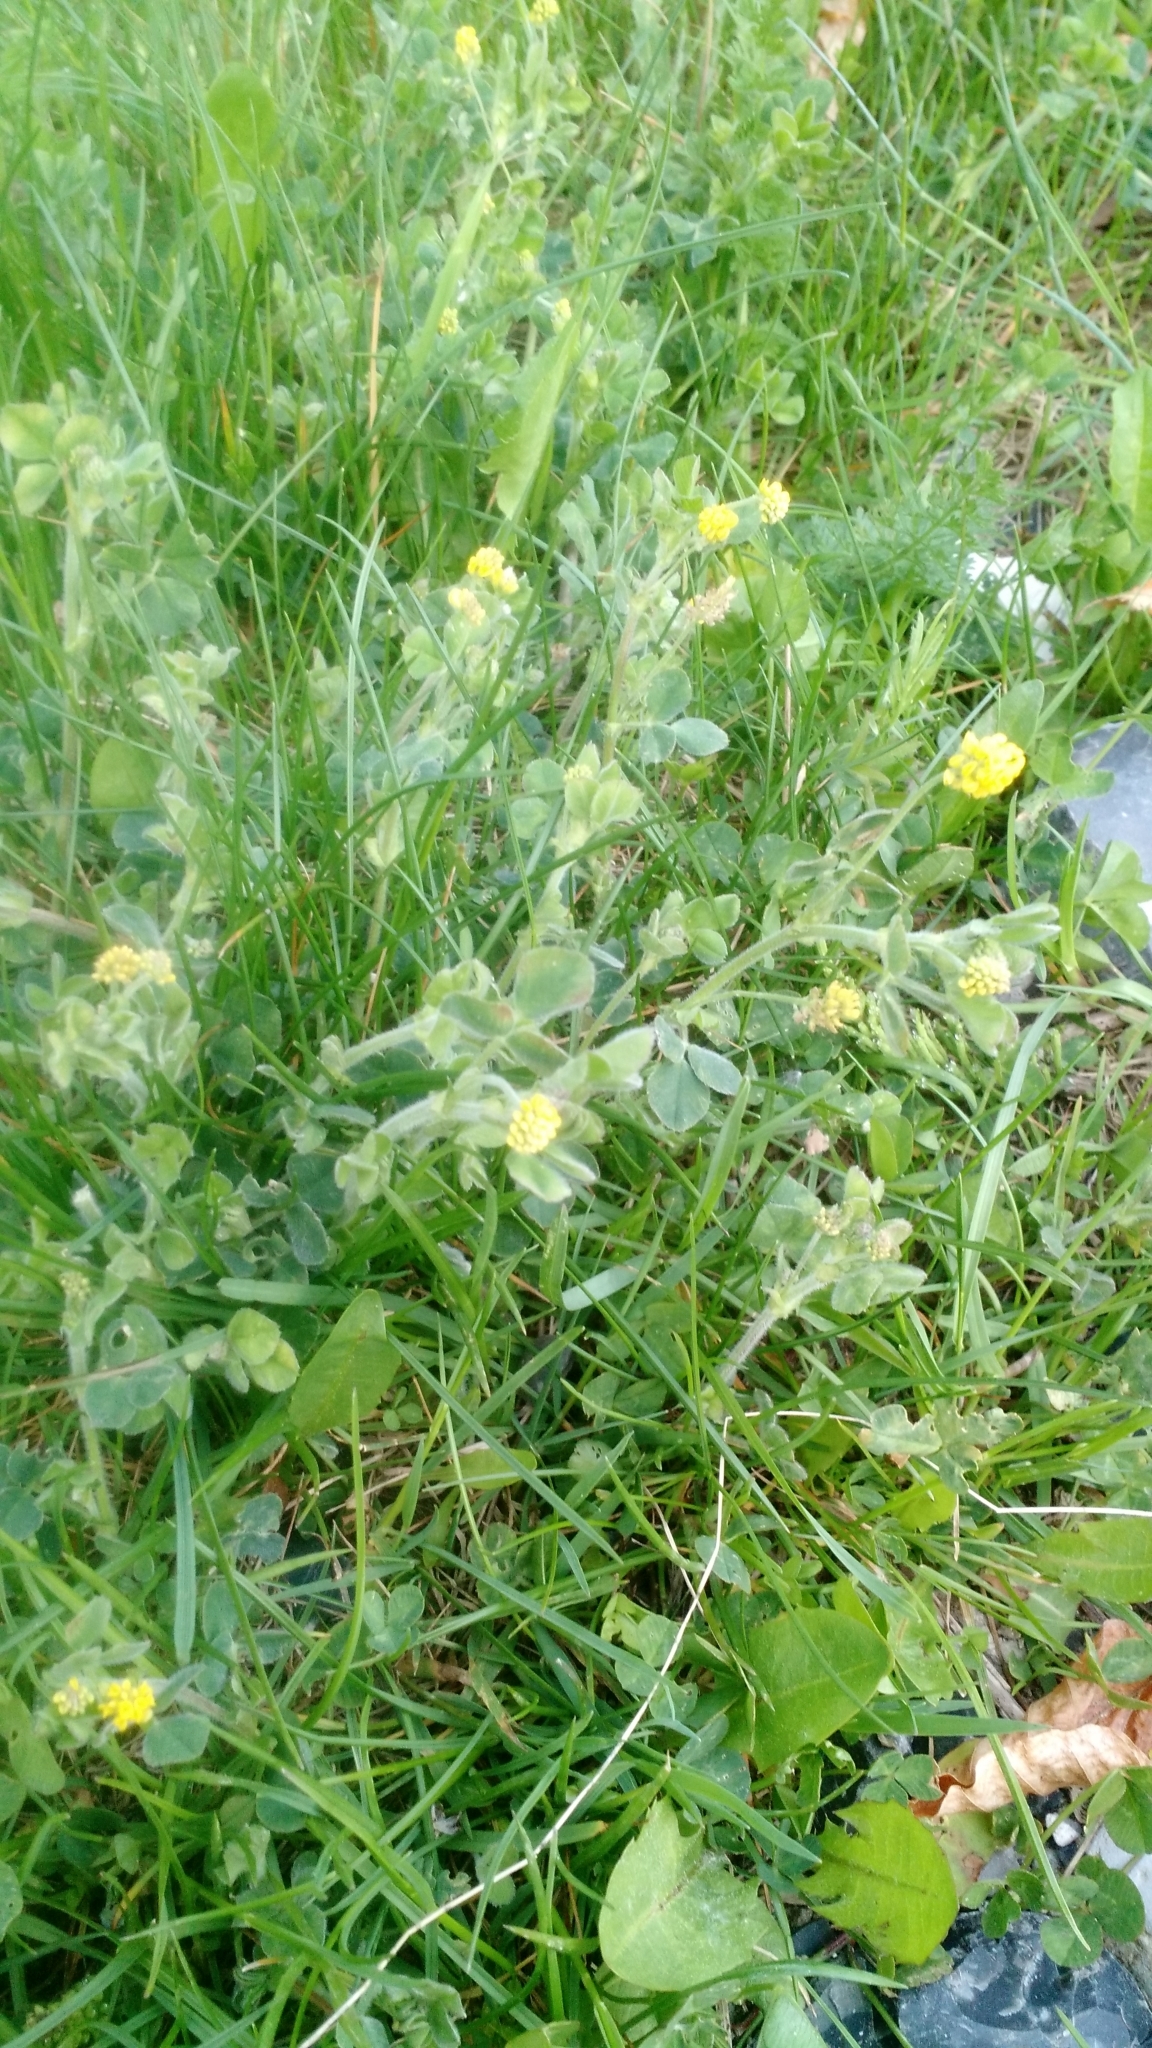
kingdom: Plantae
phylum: Tracheophyta
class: Magnoliopsida
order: Fabales
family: Fabaceae
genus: Medicago
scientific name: Medicago lupulina
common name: Black medick
